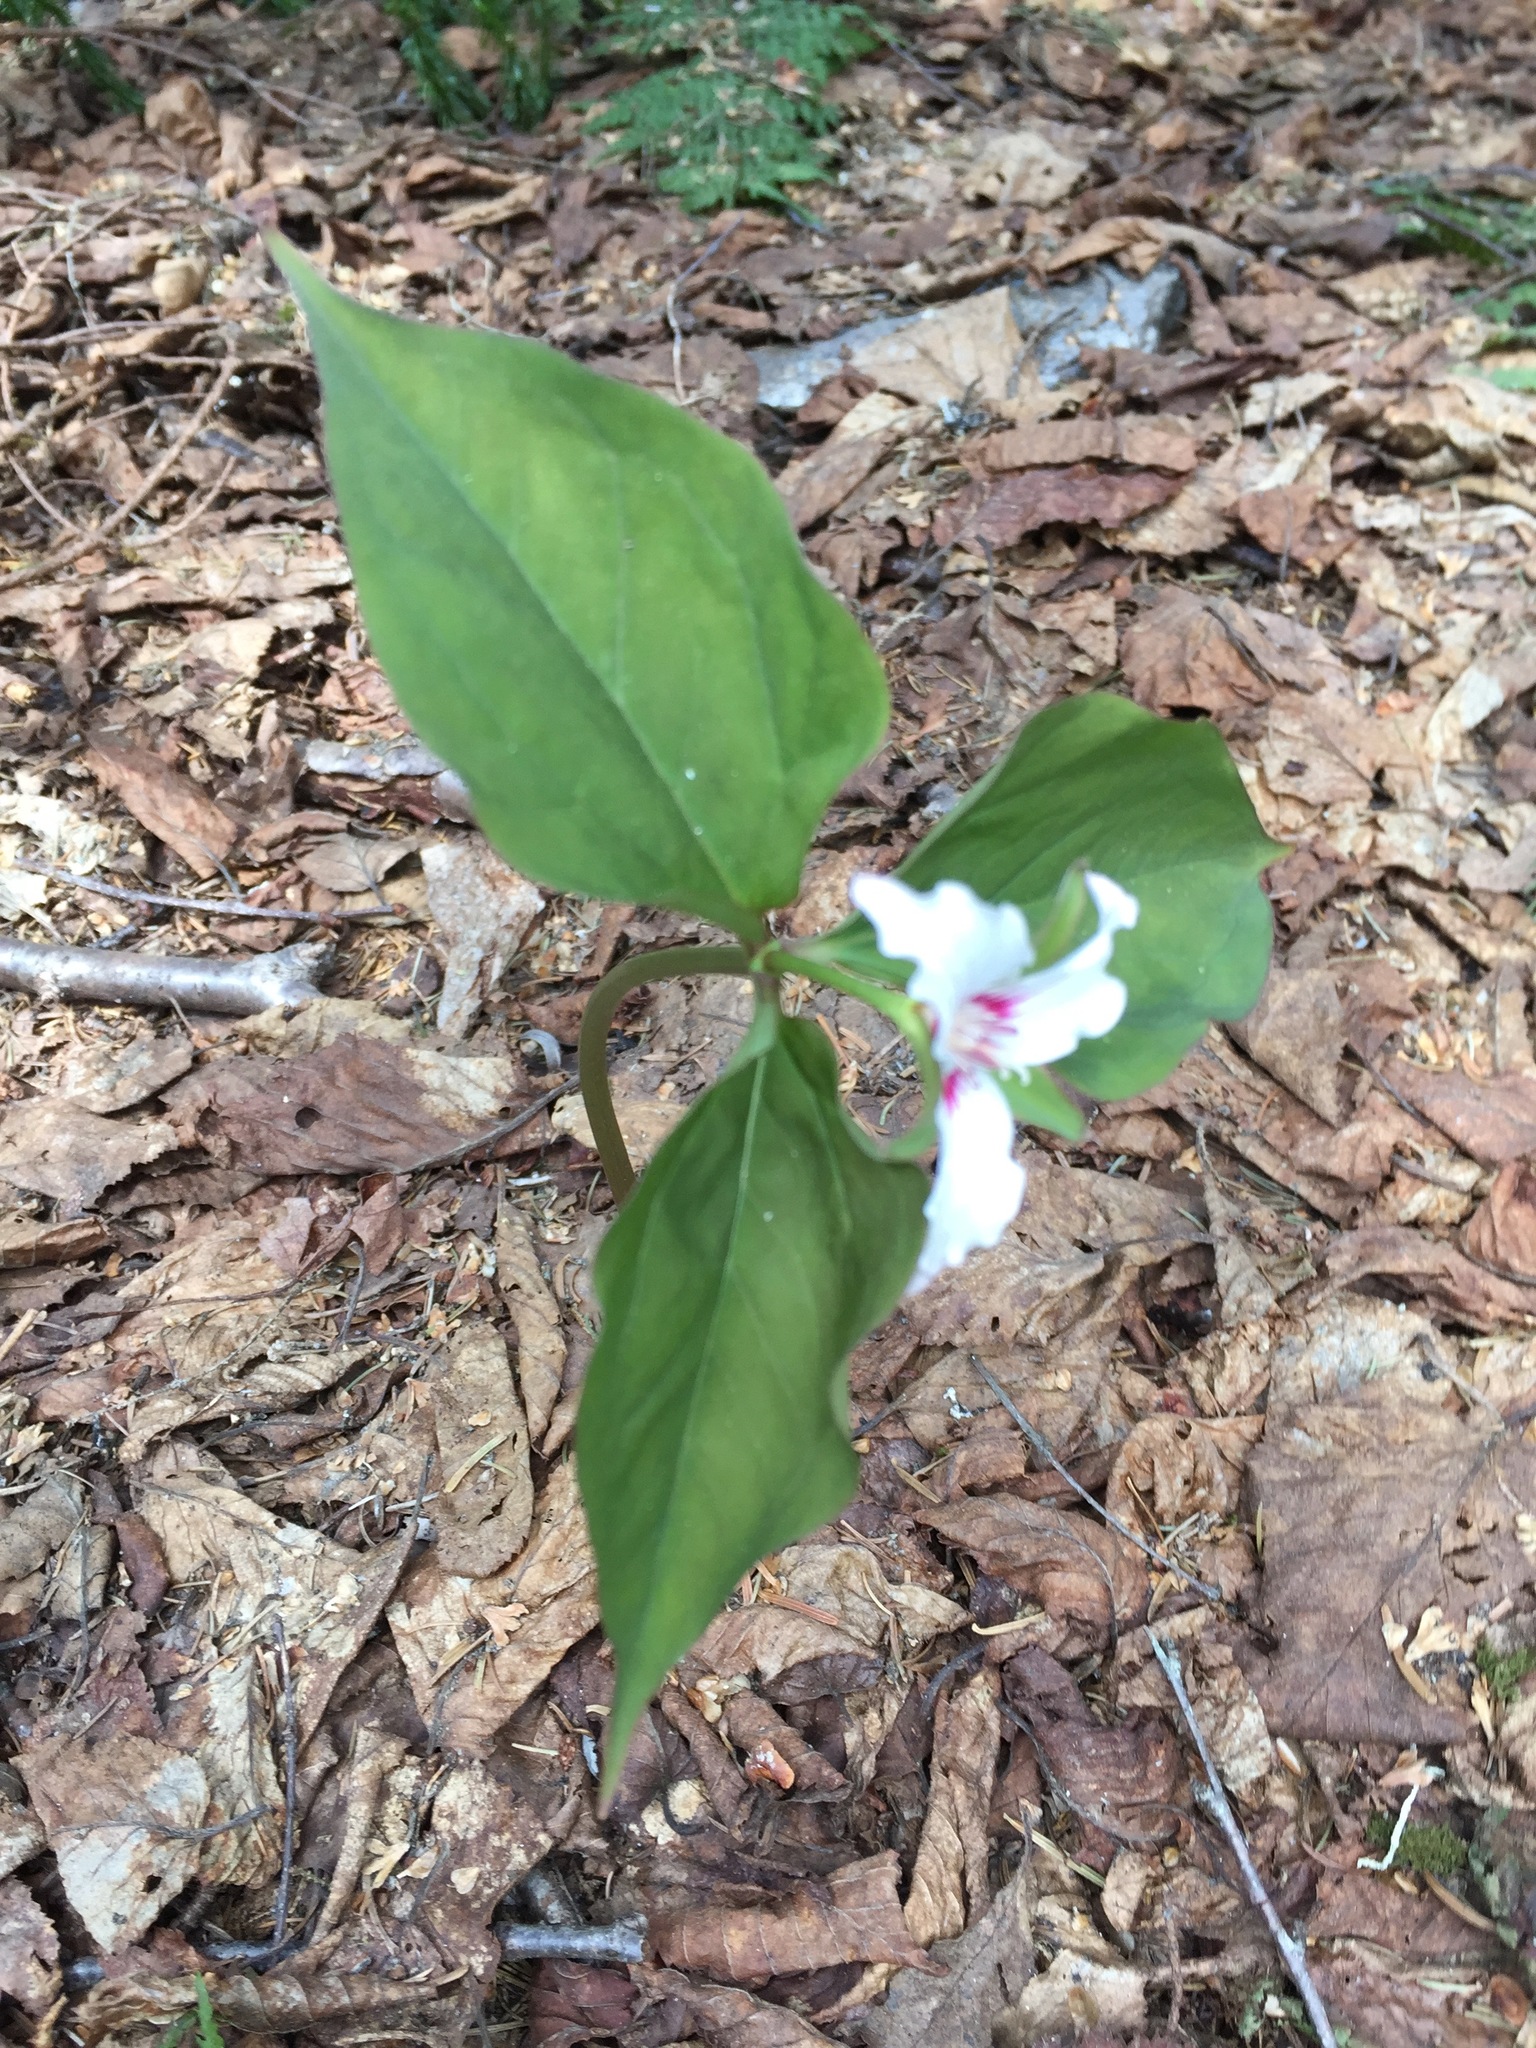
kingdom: Plantae
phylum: Tracheophyta
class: Liliopsida
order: Liliales
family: Melanthiaceae
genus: Trillium
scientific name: Trillium undulatum
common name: Paint trillium
